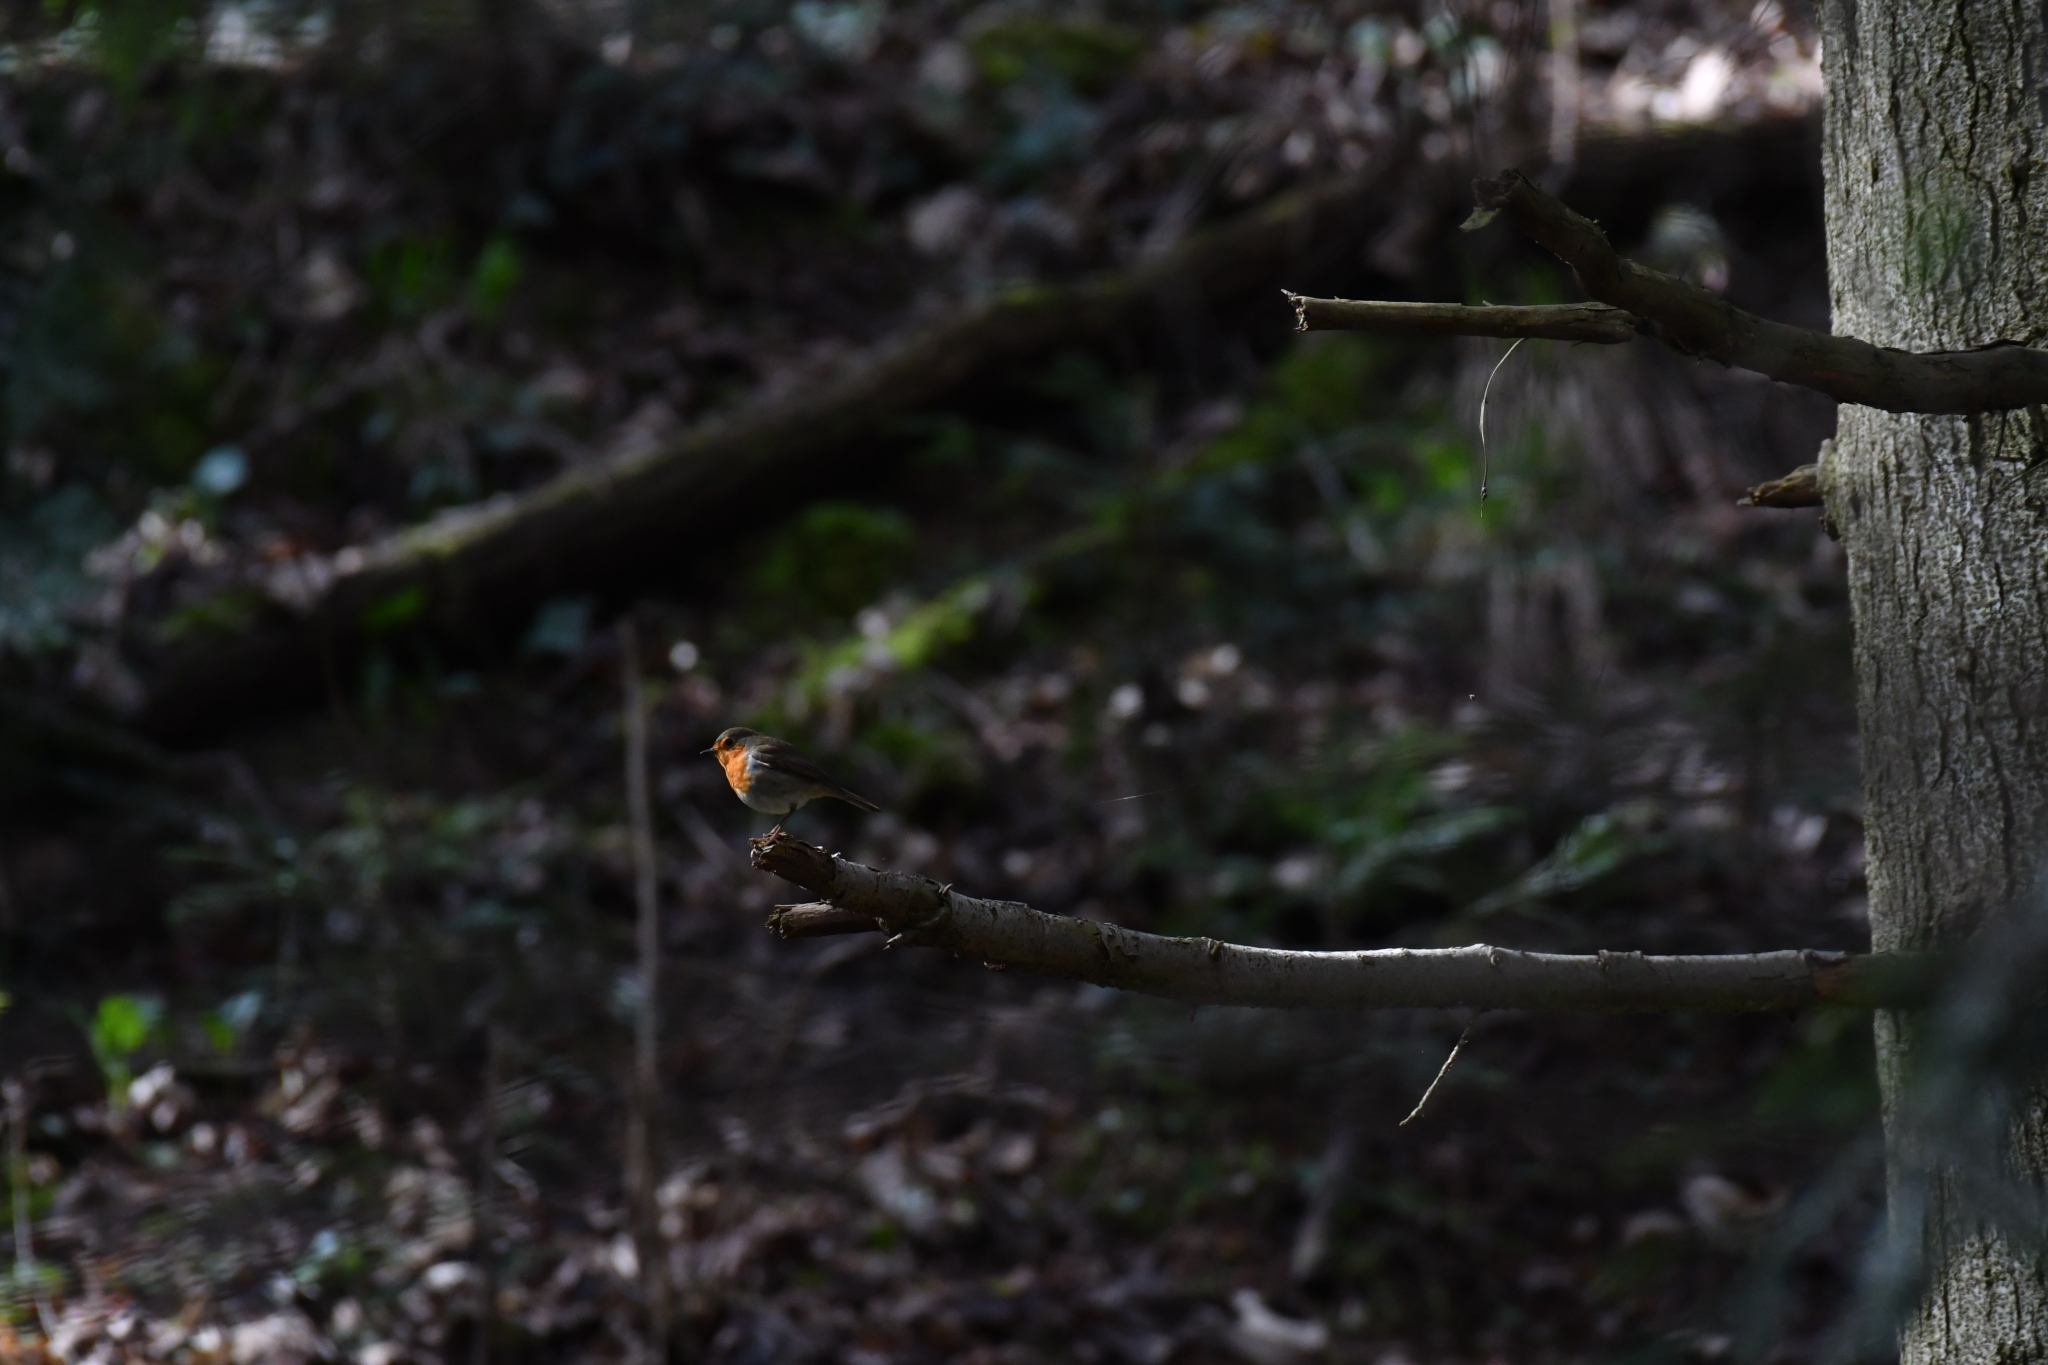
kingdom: Animalia
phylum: Chordata
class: Aves
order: Passeriformes
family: Muscicapidae
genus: Erithacus
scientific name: Erithacus rubecula
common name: European robin
